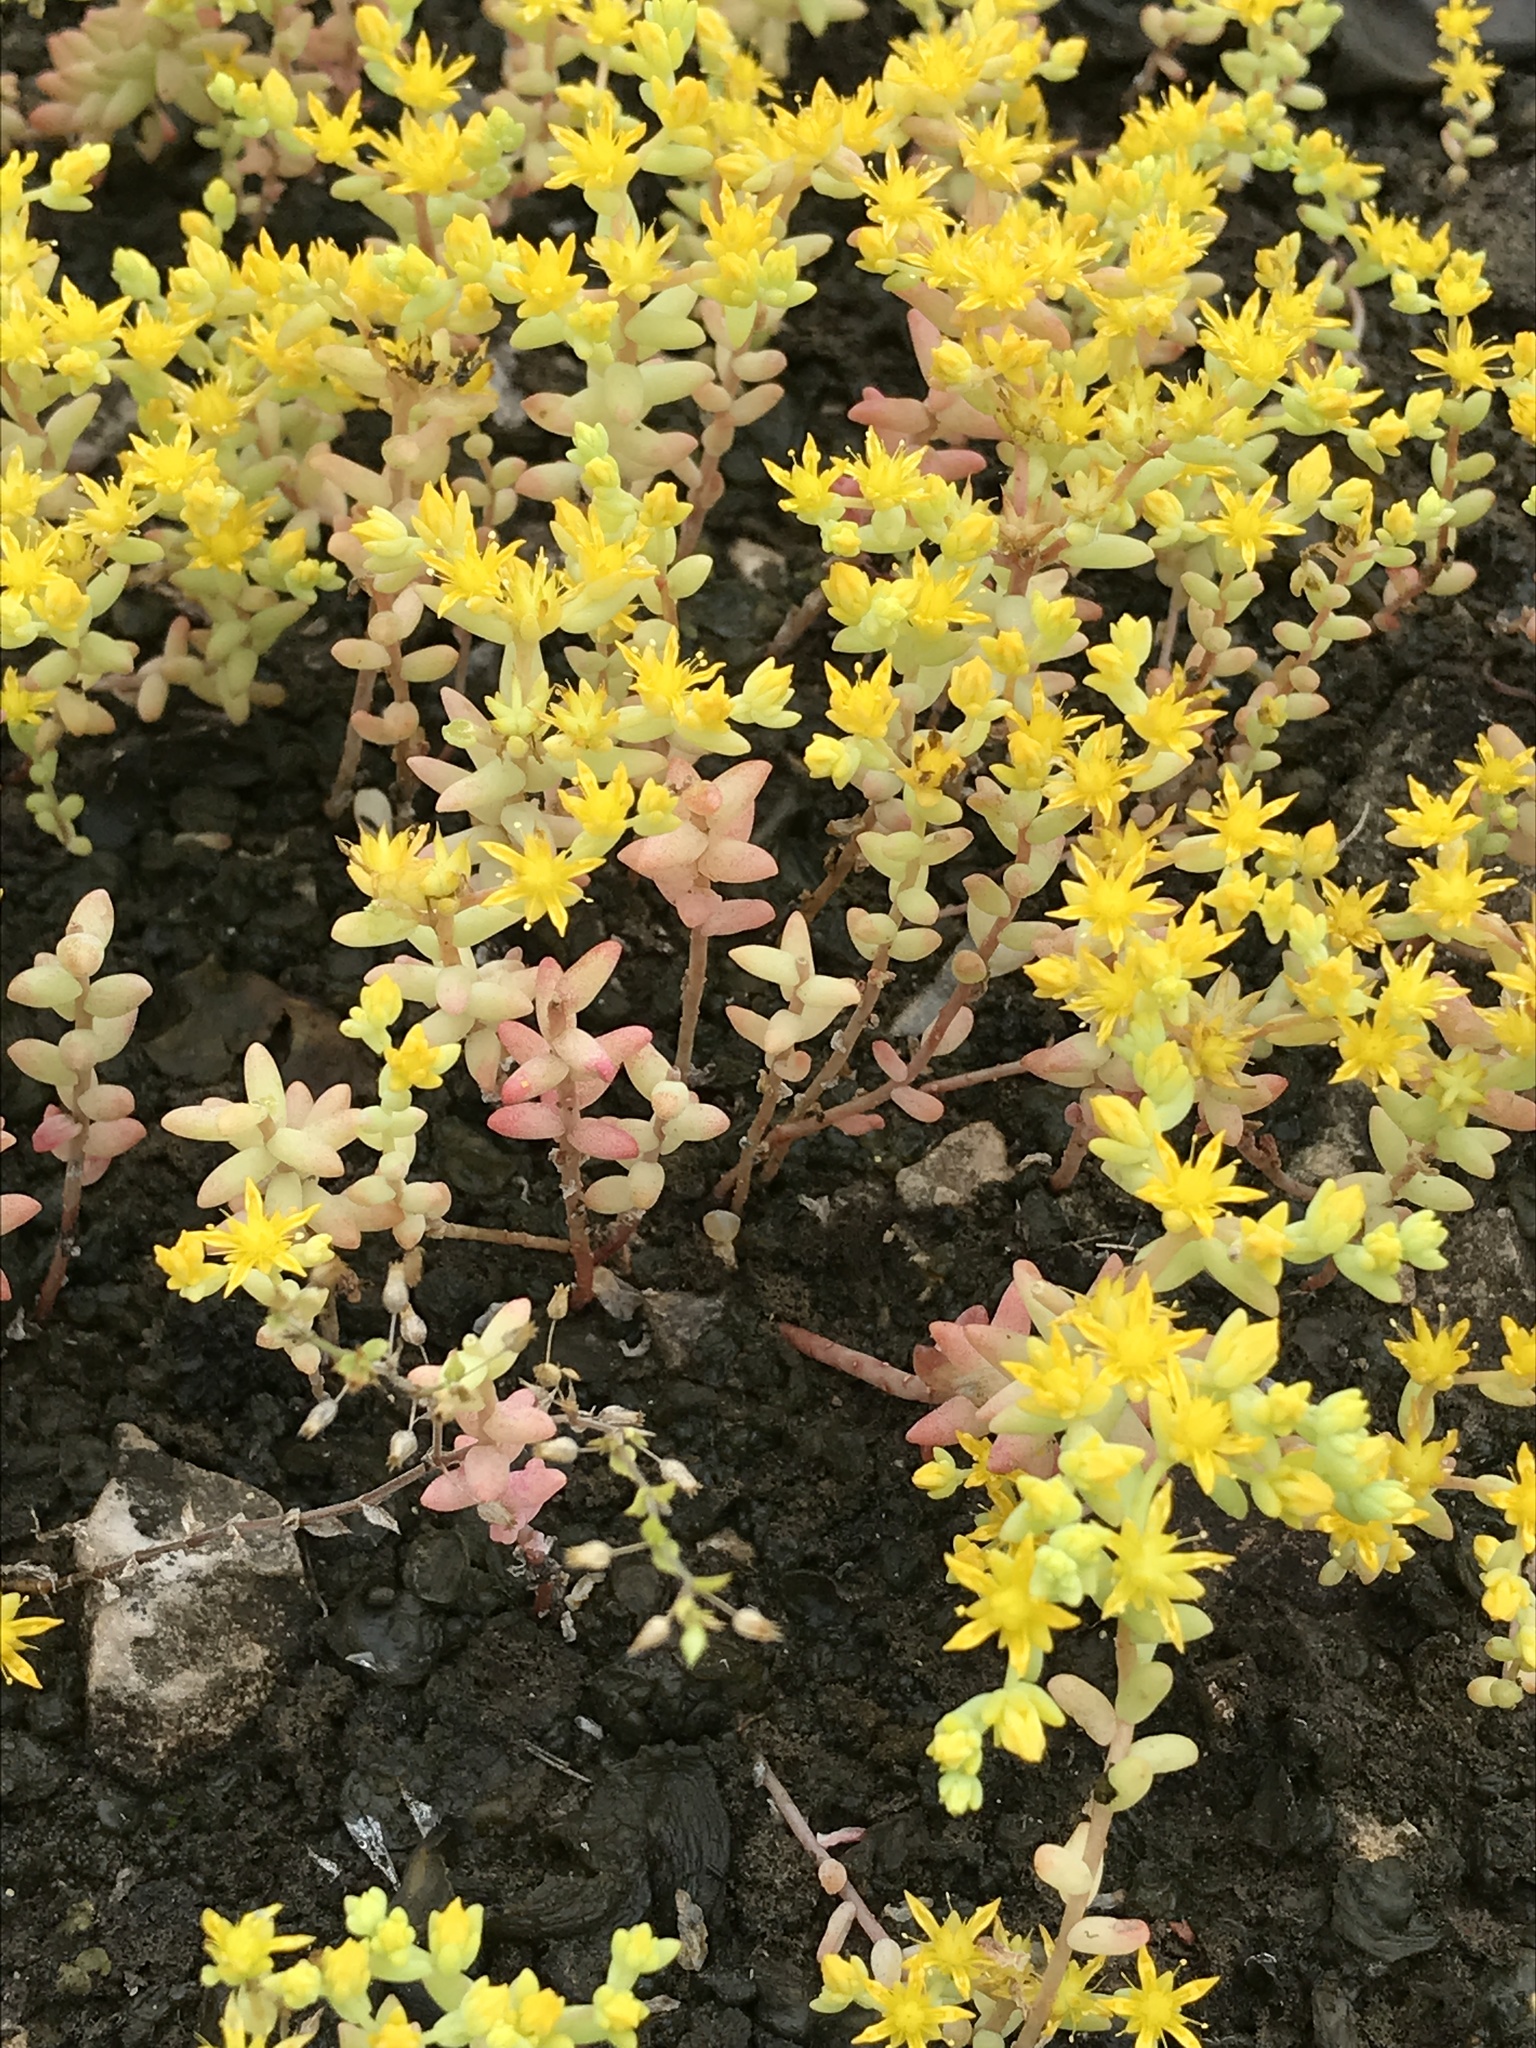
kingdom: Plantae
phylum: Tracheophyta
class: Magnoliopsida
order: Saxifragales
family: Crassulaceae
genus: Sedum
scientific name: Sedum nuttallii
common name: Yellow stonecrop
